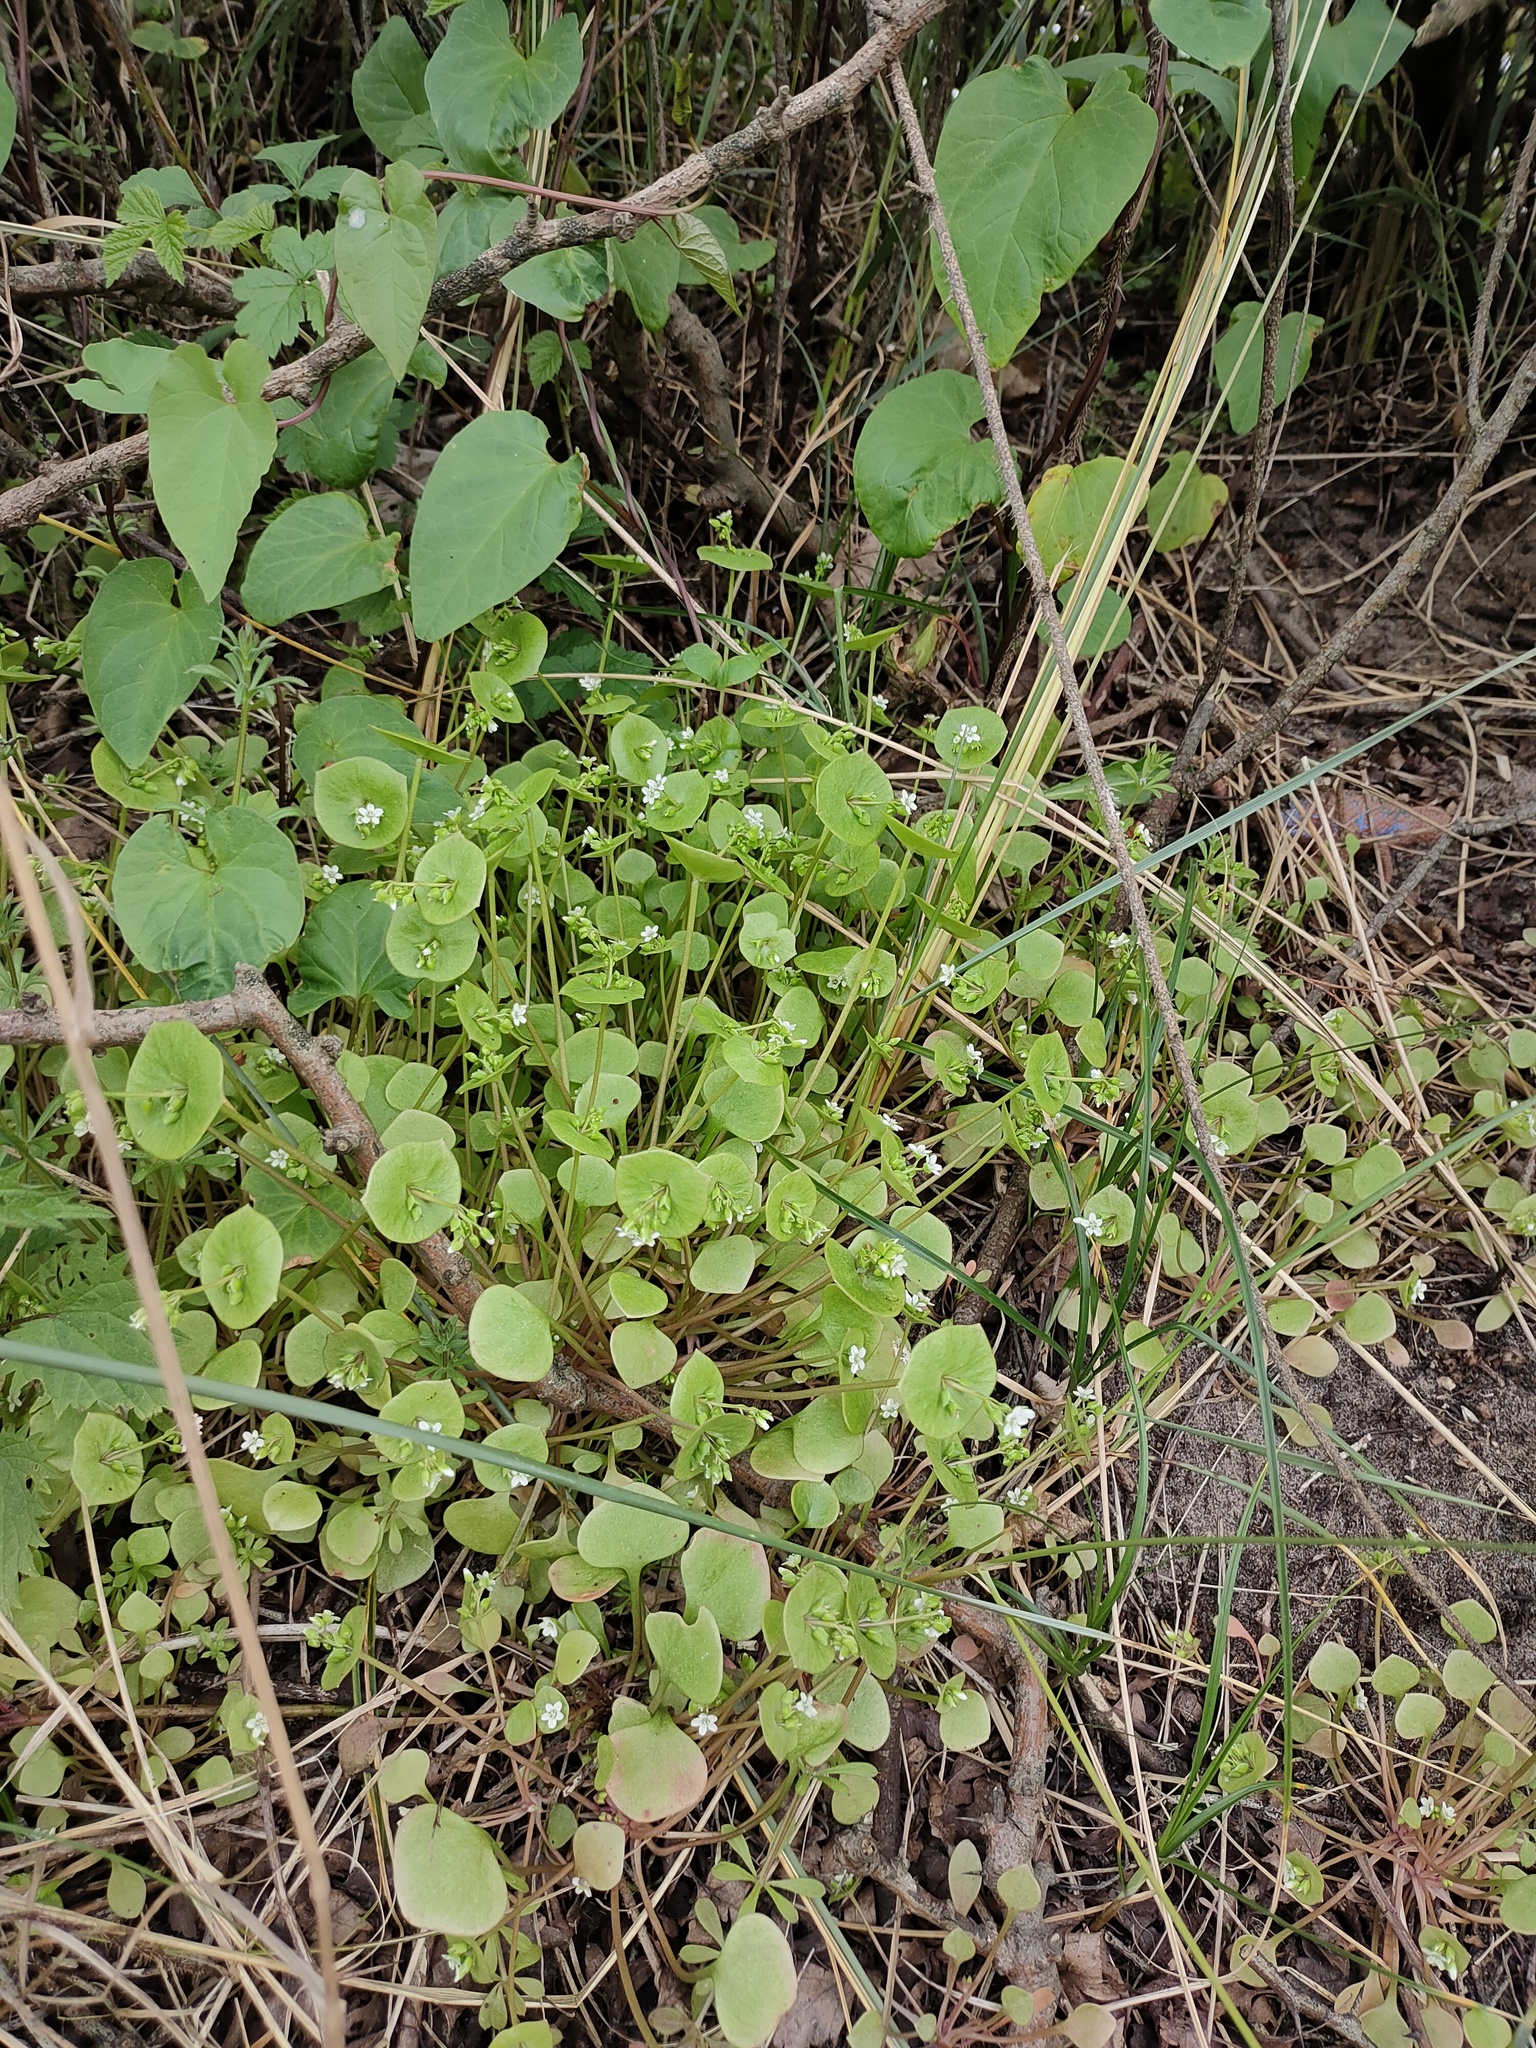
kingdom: Plantae
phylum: Tracheophyta
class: Magnoliopsida
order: Caryophyllales
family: Montiaceae
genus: Claytonia
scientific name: Claytonia perfoliata
